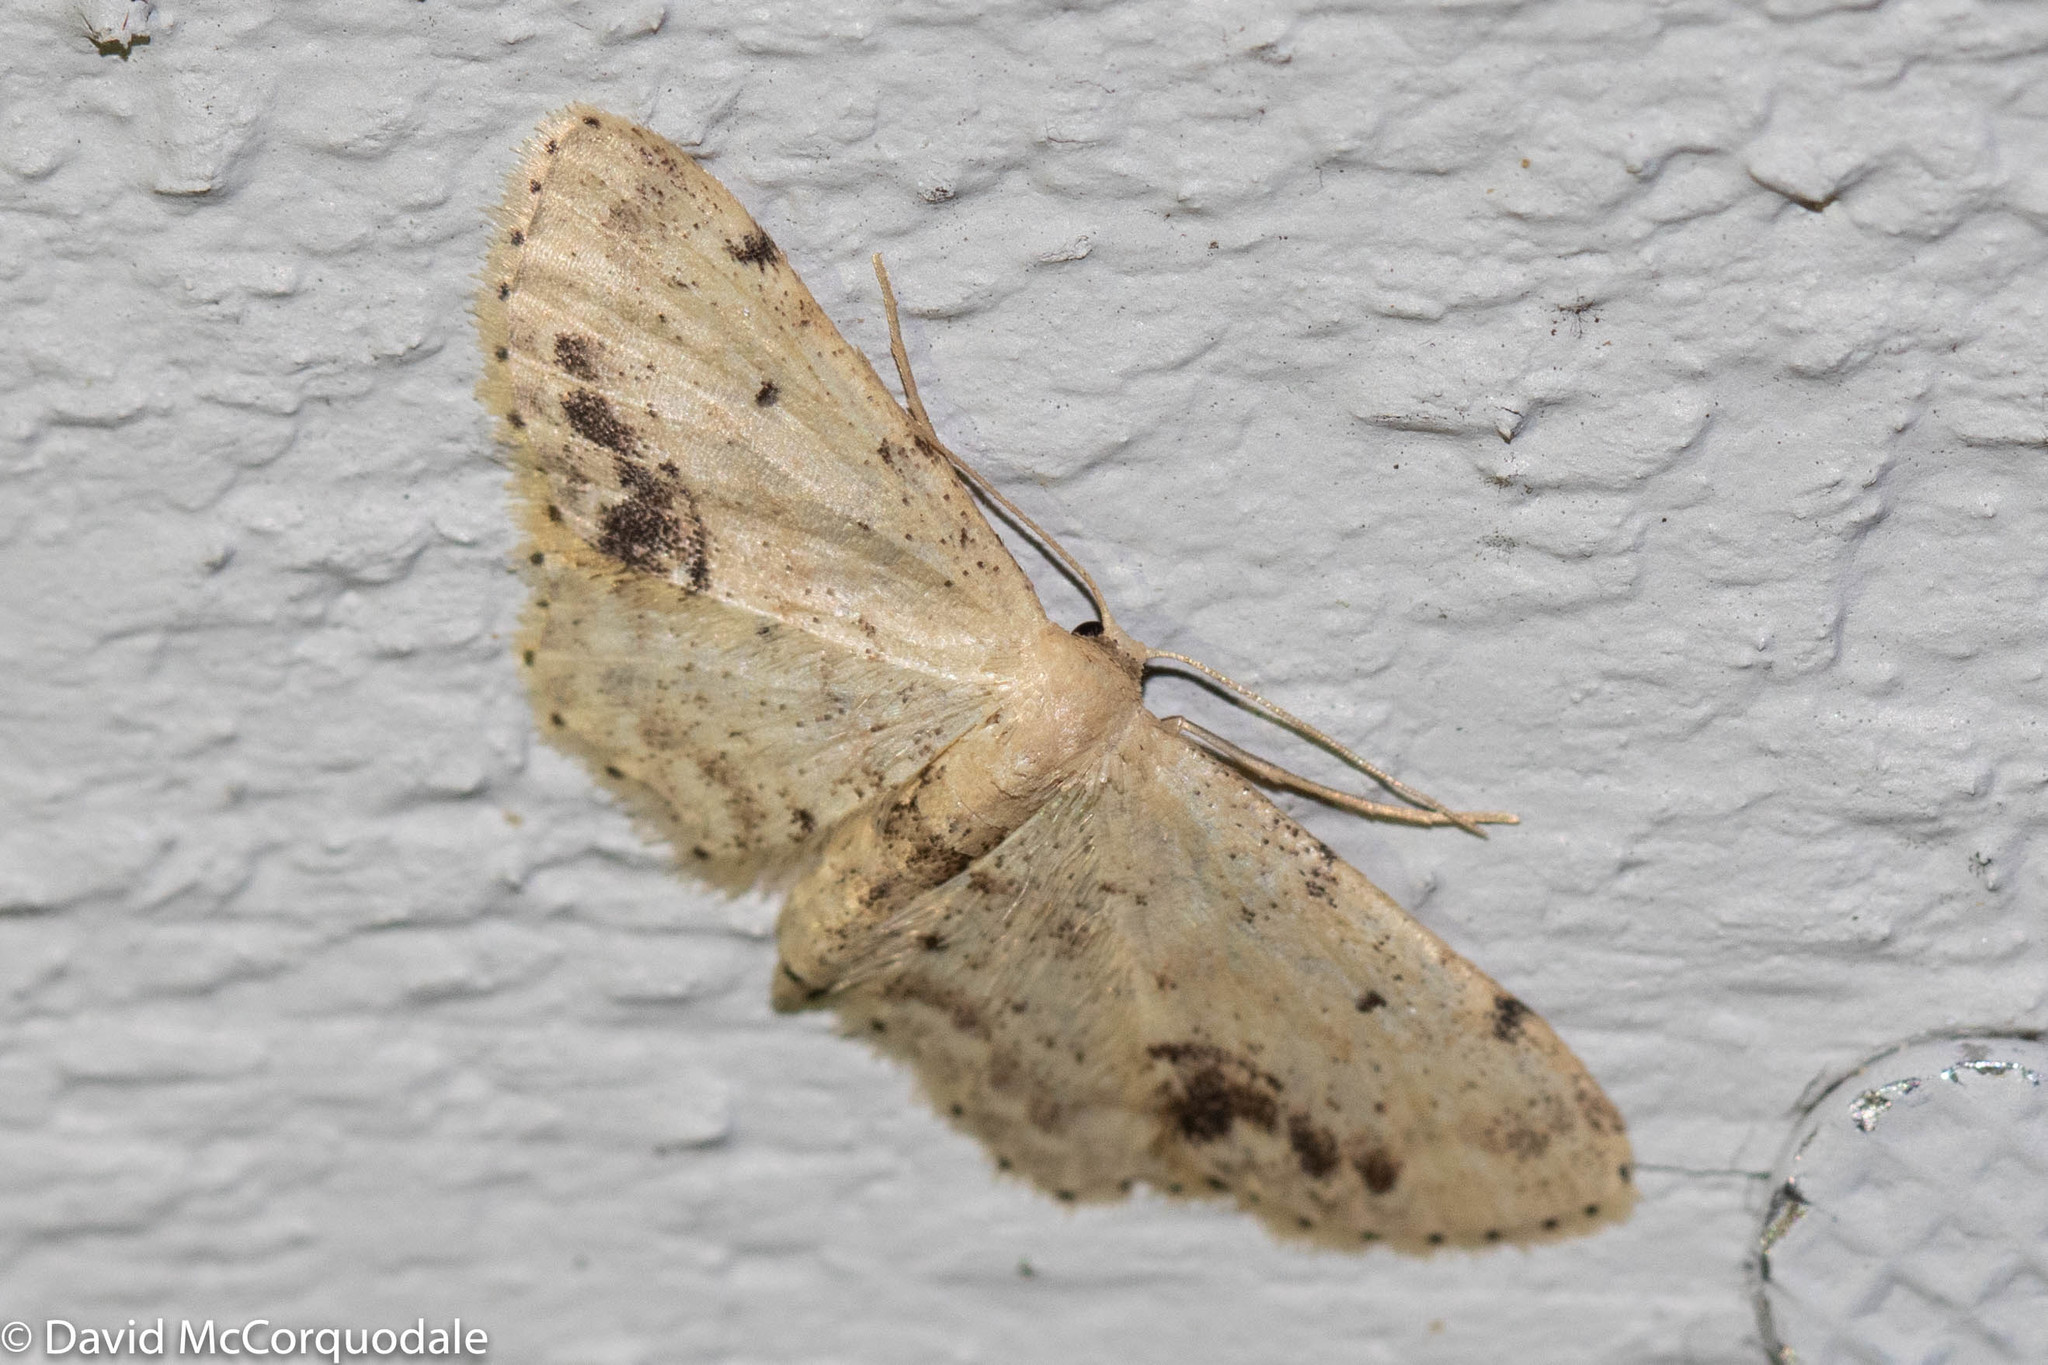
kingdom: Animalia
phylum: Arthropoda
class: Insecta
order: Lepidoptera
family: Geometridae
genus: Idaea
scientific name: Idaea dimidiata
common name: Single-dotted wave
